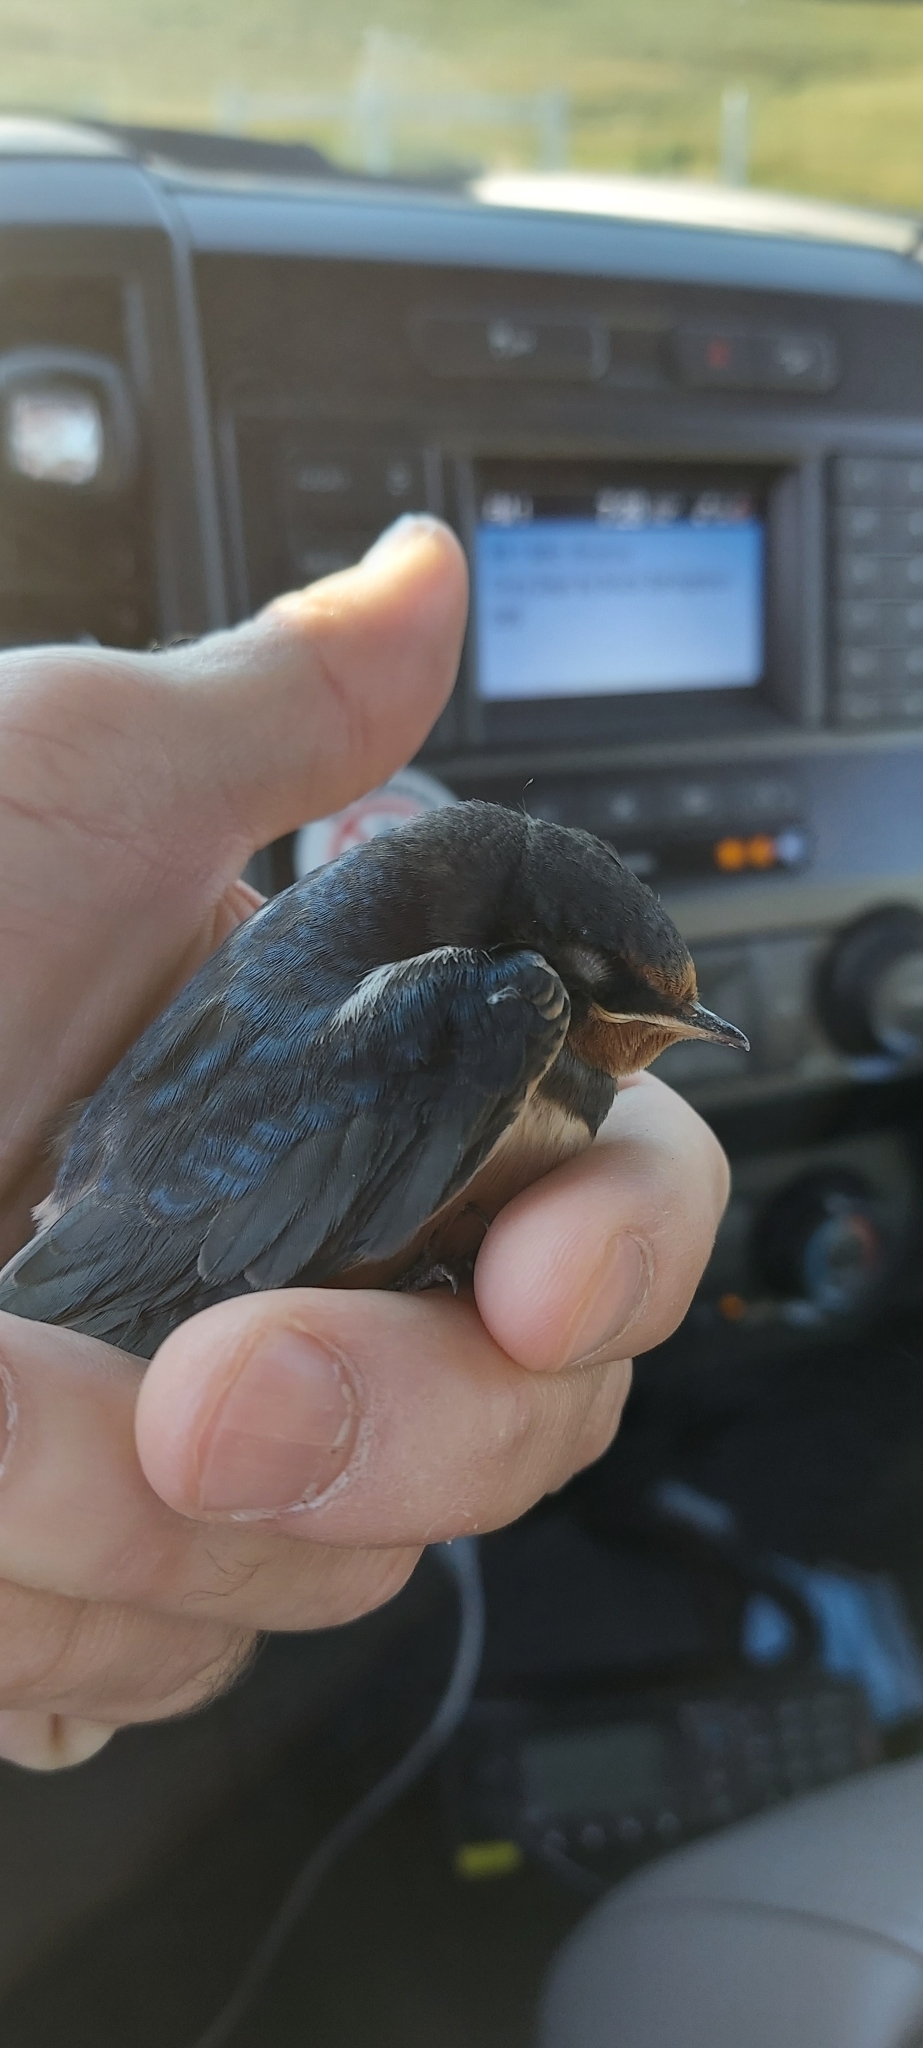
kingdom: Animalia
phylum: Chordata
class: Aves
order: Passeriformes
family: Hirundinidae
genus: Hirundo
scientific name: Hirundo rustica
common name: Barn swallow
